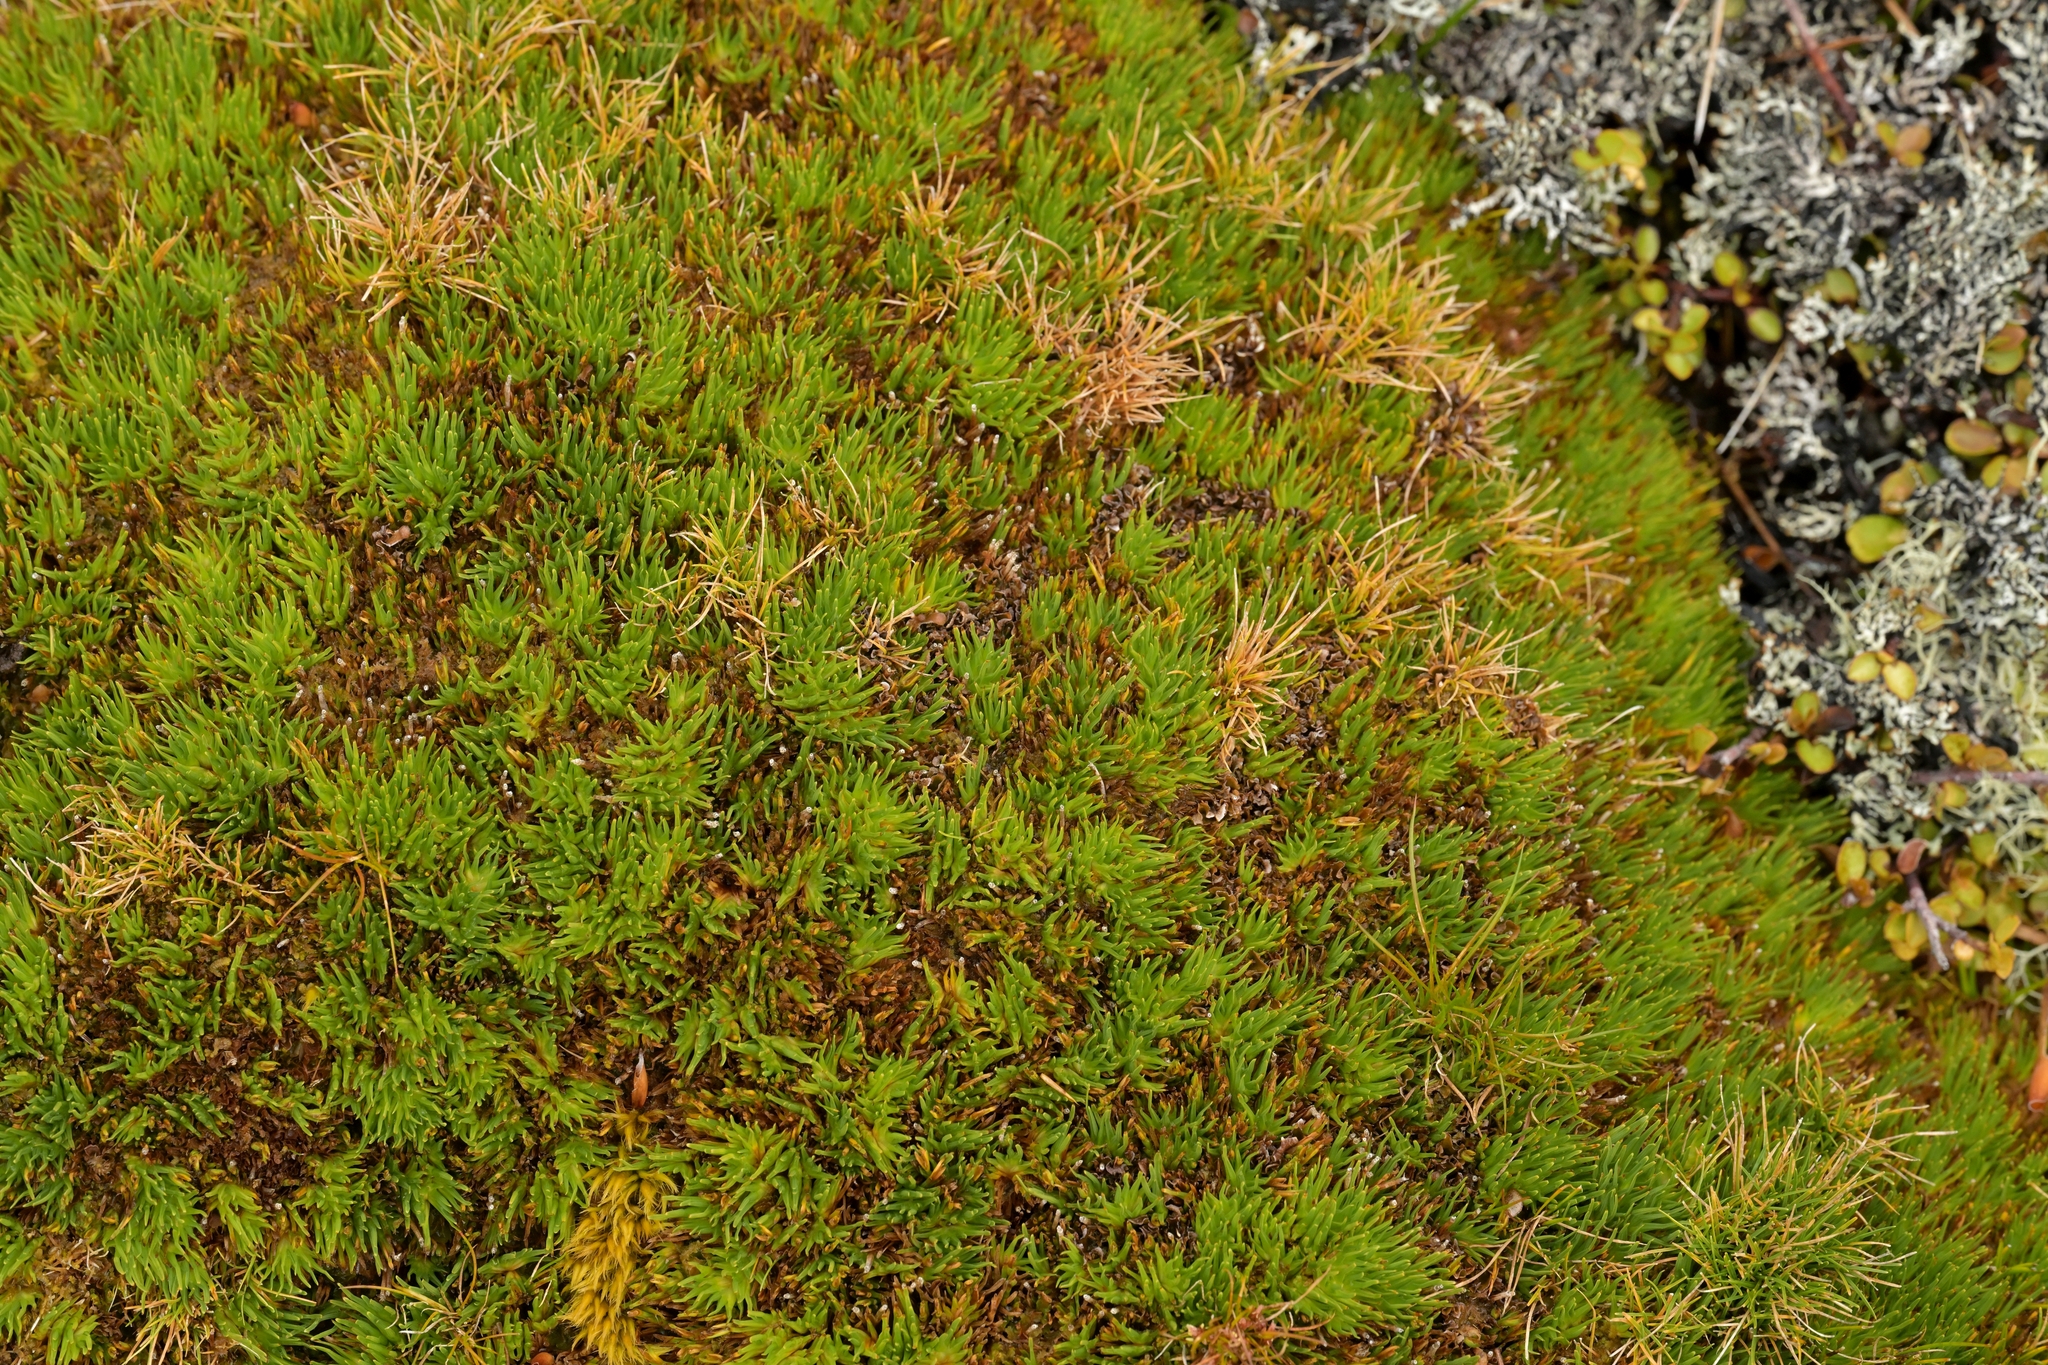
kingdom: Plantae
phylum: Tracheophyta
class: Liliopsida
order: Poales
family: Cyperaceae
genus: Oreobolus
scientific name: Oreobolus pectinatus
